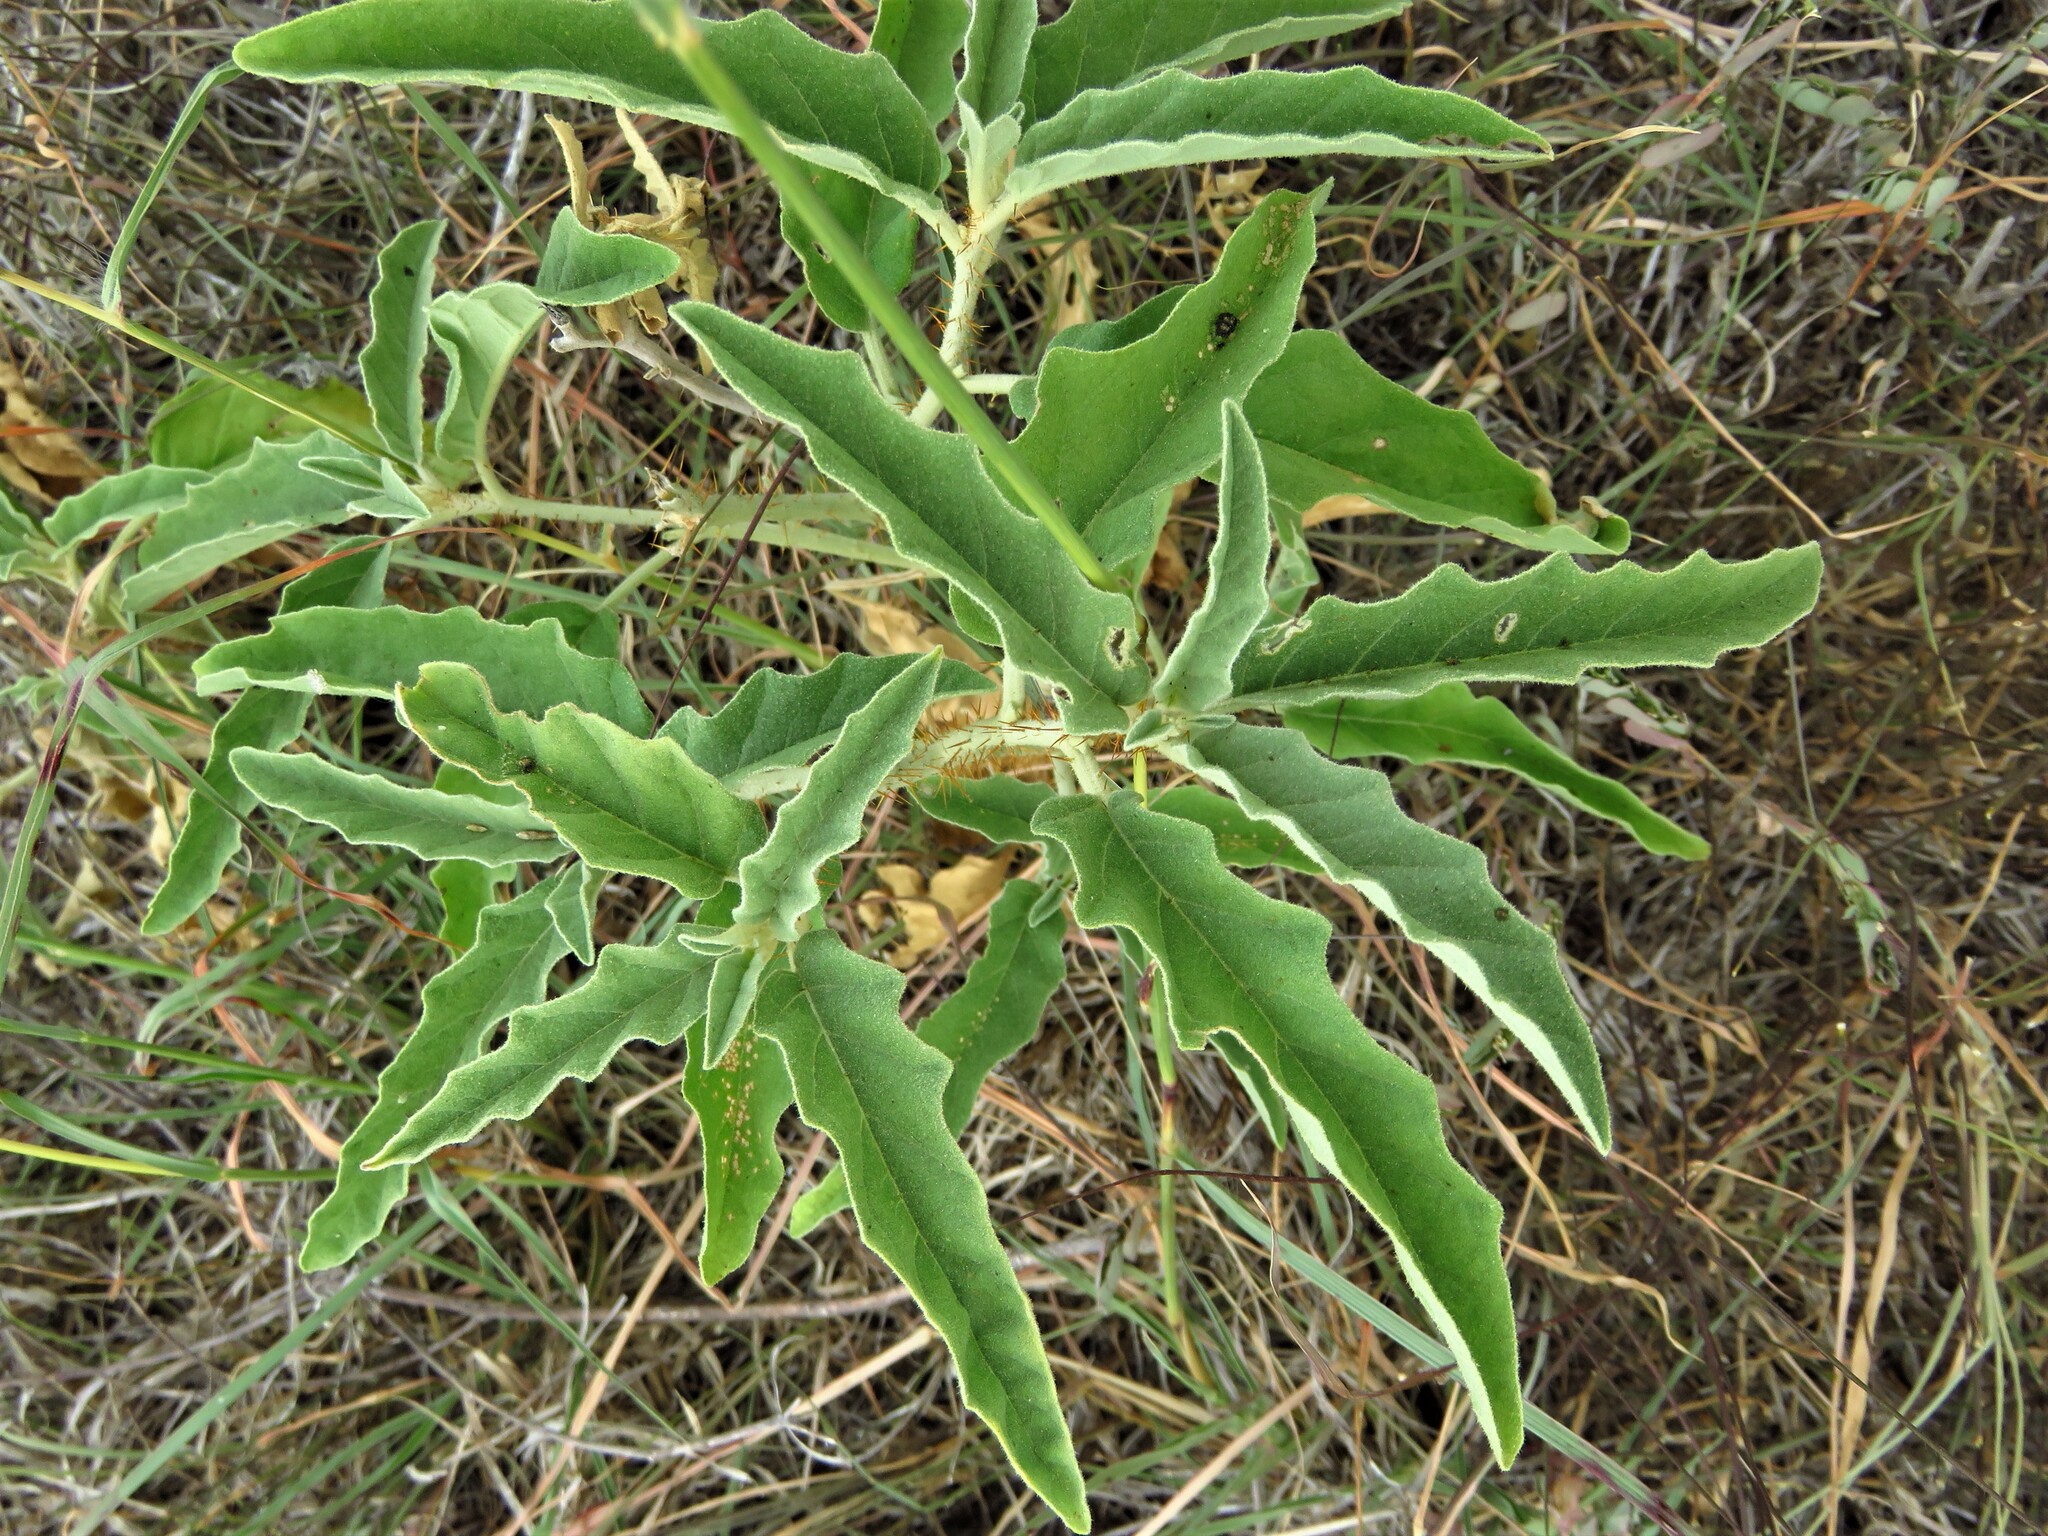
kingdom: Plantae
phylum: Tracheophyta
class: Magnoliopsida
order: Solanales
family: Solanaceae
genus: Solanum
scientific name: Solanum elaeagnifolium
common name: Silverleaf nightshade
